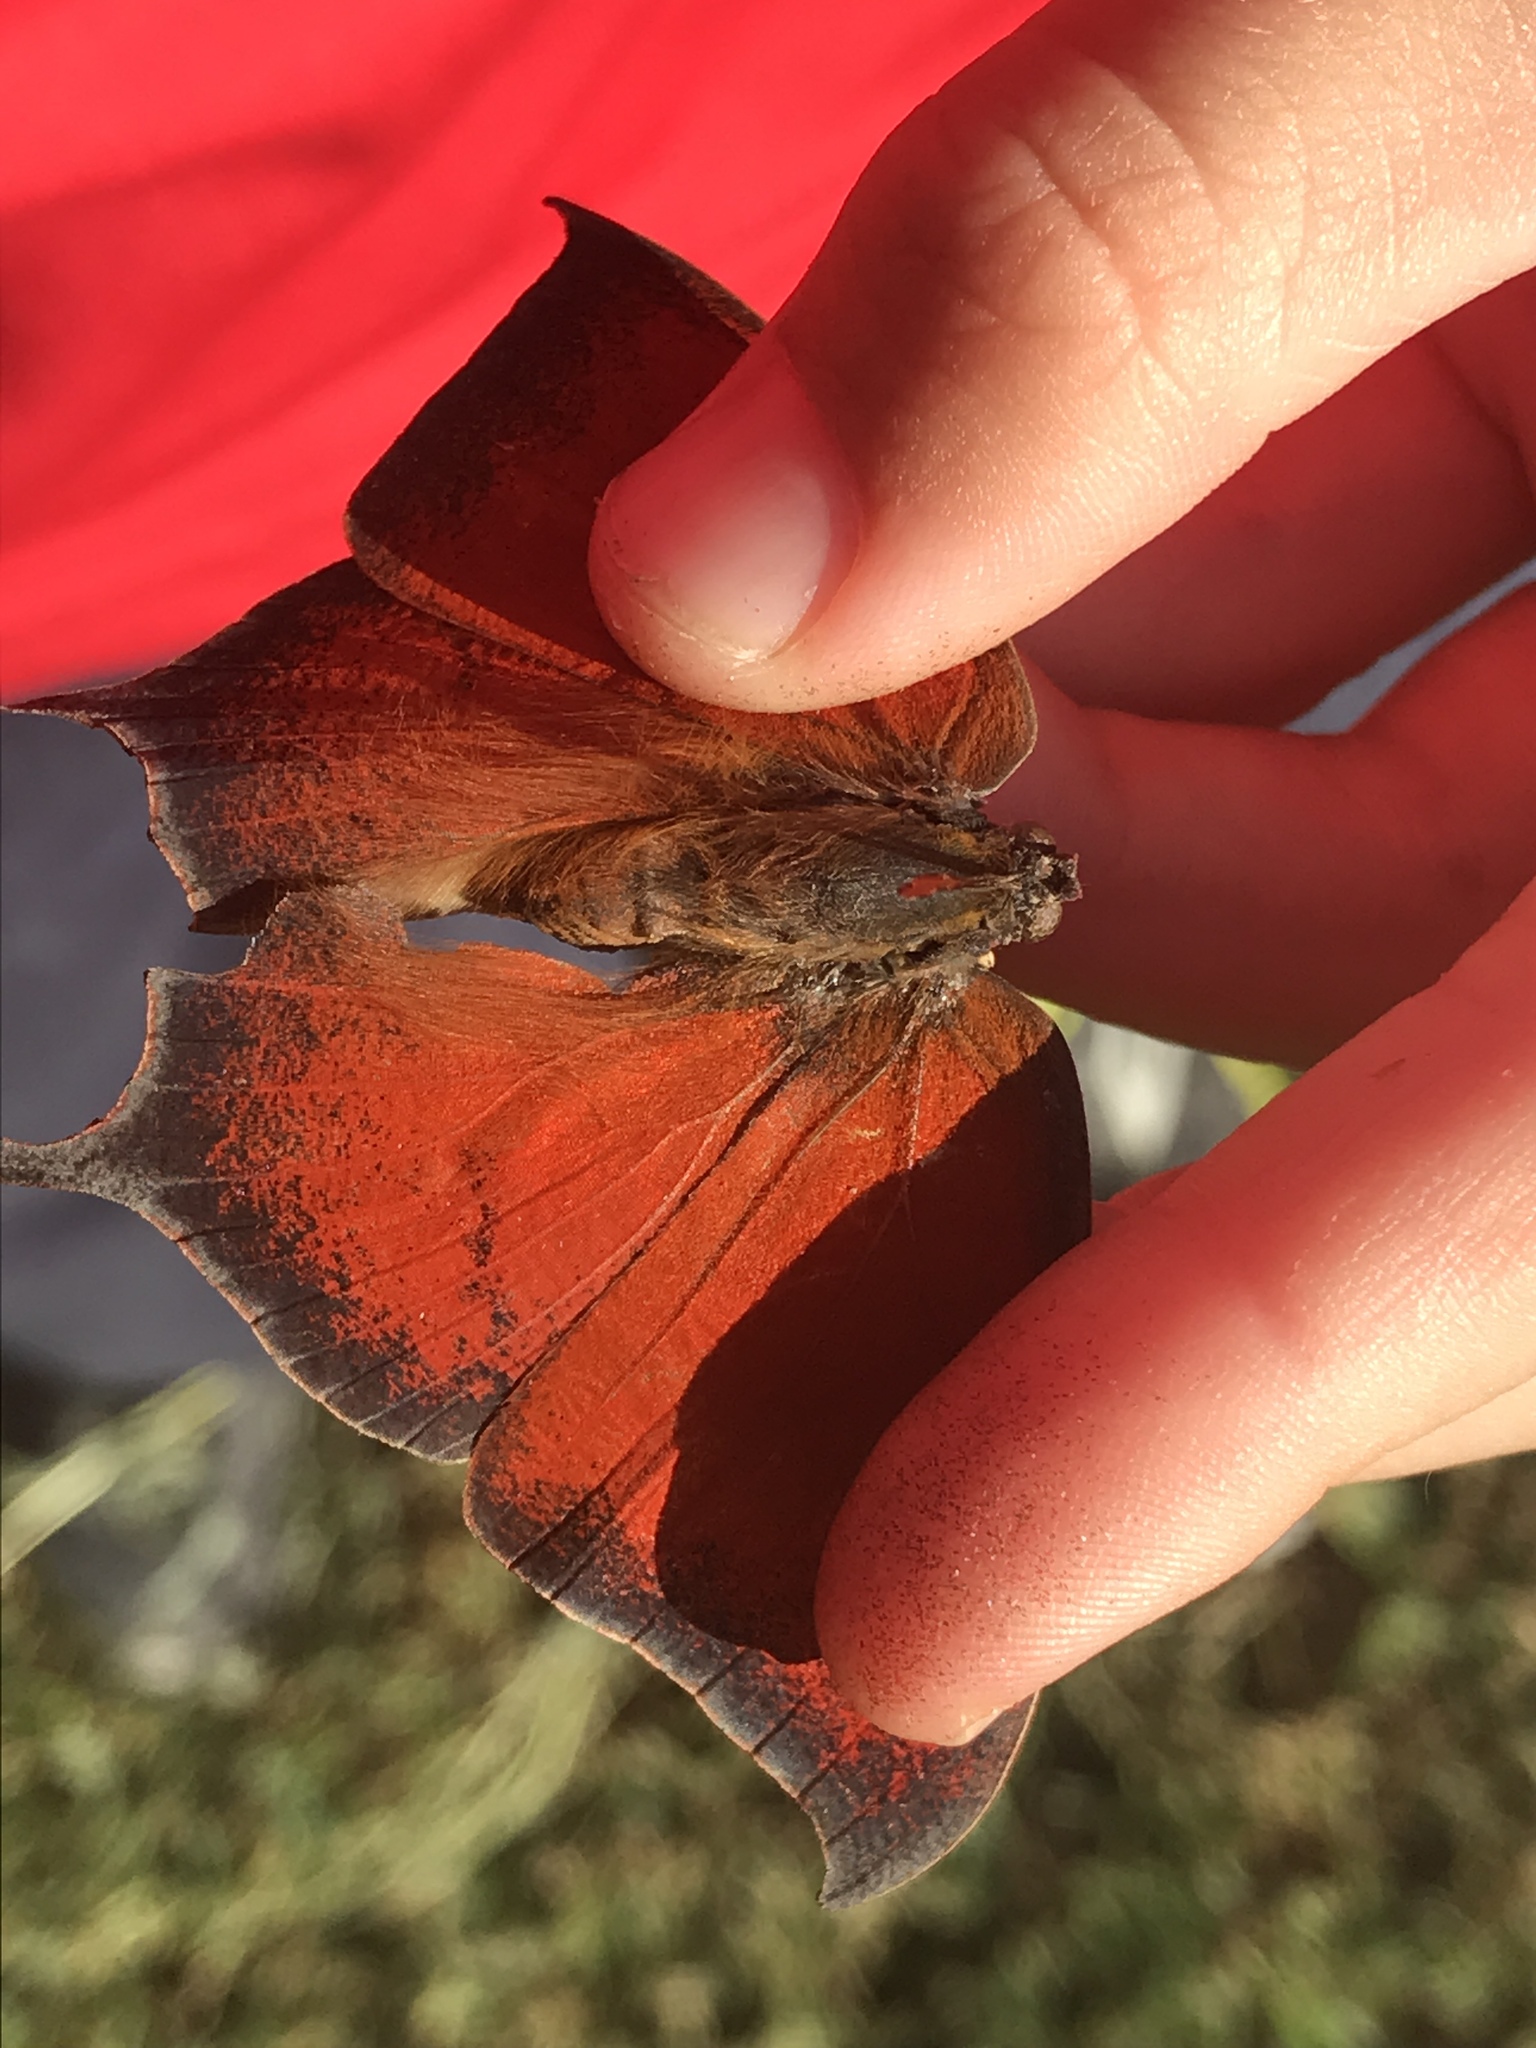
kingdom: Animalia
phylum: Arthropoda
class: Insecta
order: Lepidoptera
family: Nymphalidae
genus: Anaea
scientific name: Anaea andria
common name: Goatweed leafwing
